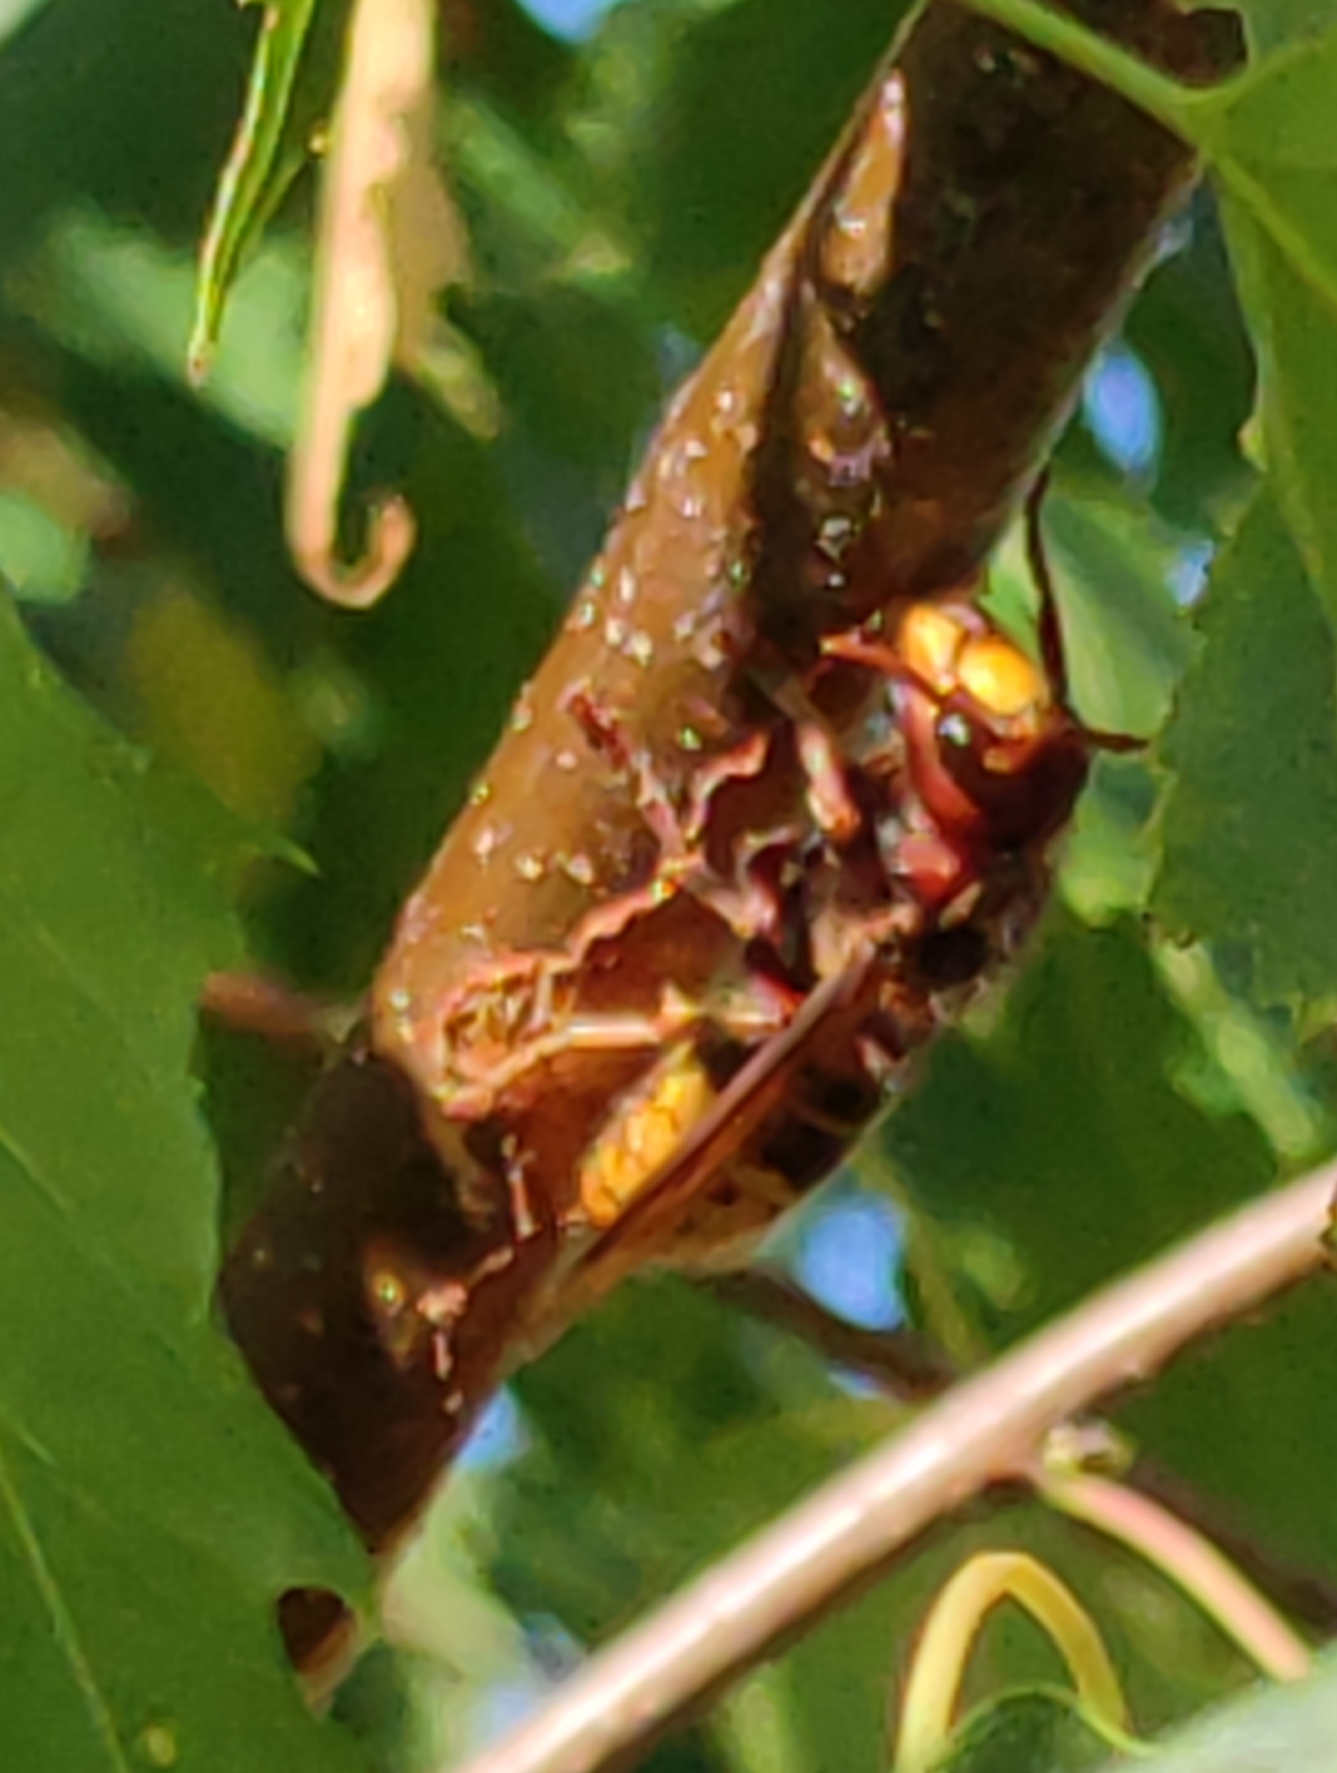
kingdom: Animalia
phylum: Arthropoda
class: Insecta
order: Hymenoptera
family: Vespidae
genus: Vespa
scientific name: Vespa crabro
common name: Hornet
